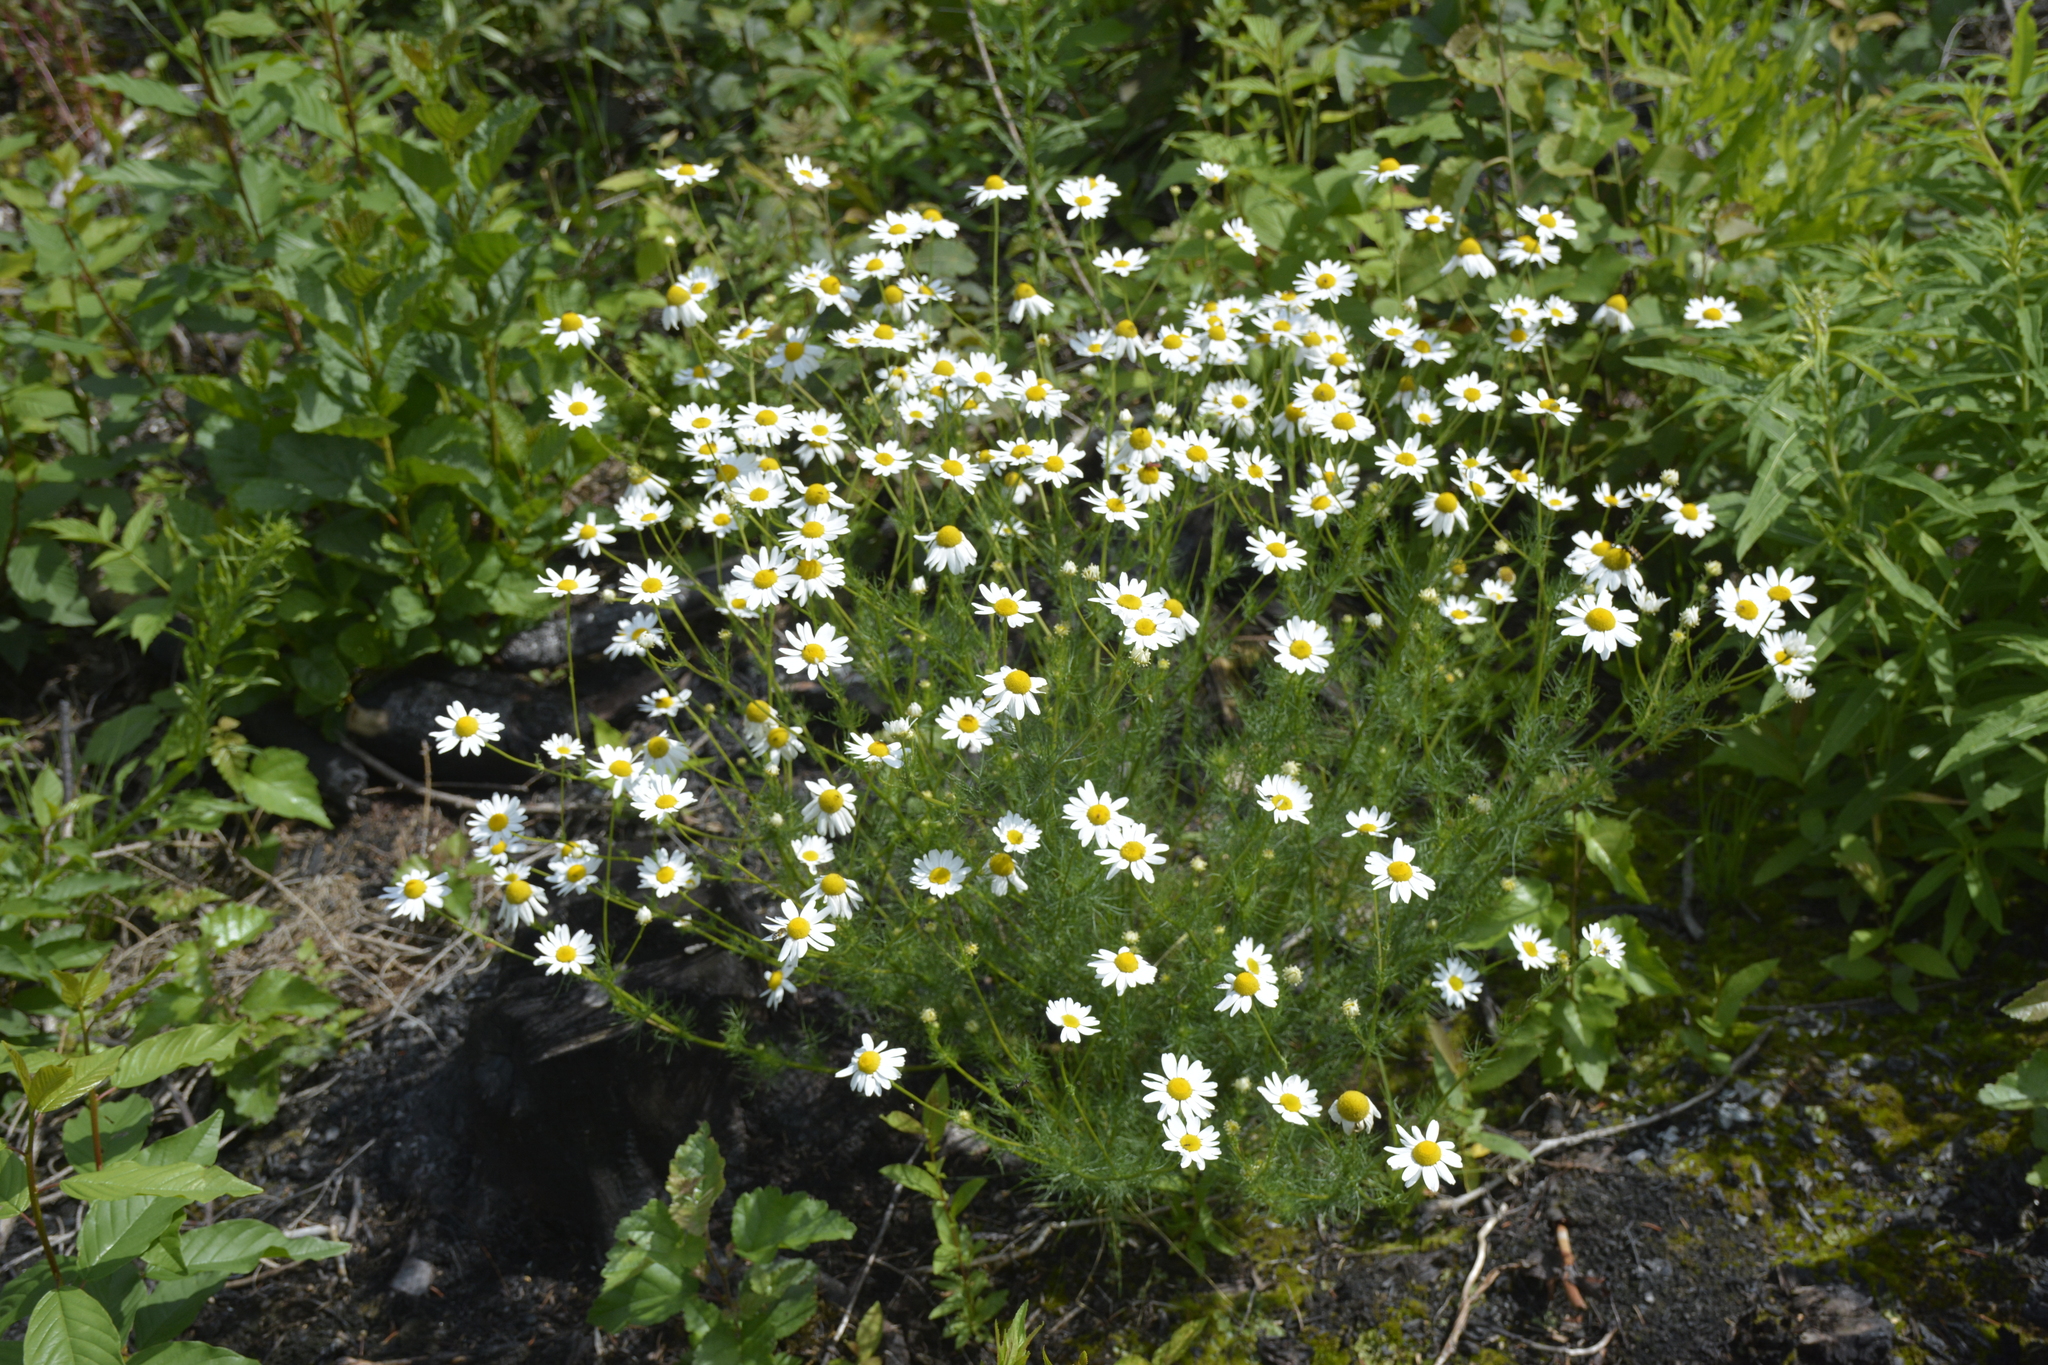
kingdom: Plantae
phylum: Tracheophyta
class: Magnoliopsida
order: Asterales
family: Asteraceae
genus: Tripleurospermum
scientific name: Tripleurospermum inodorum
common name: Scentless mayweed
